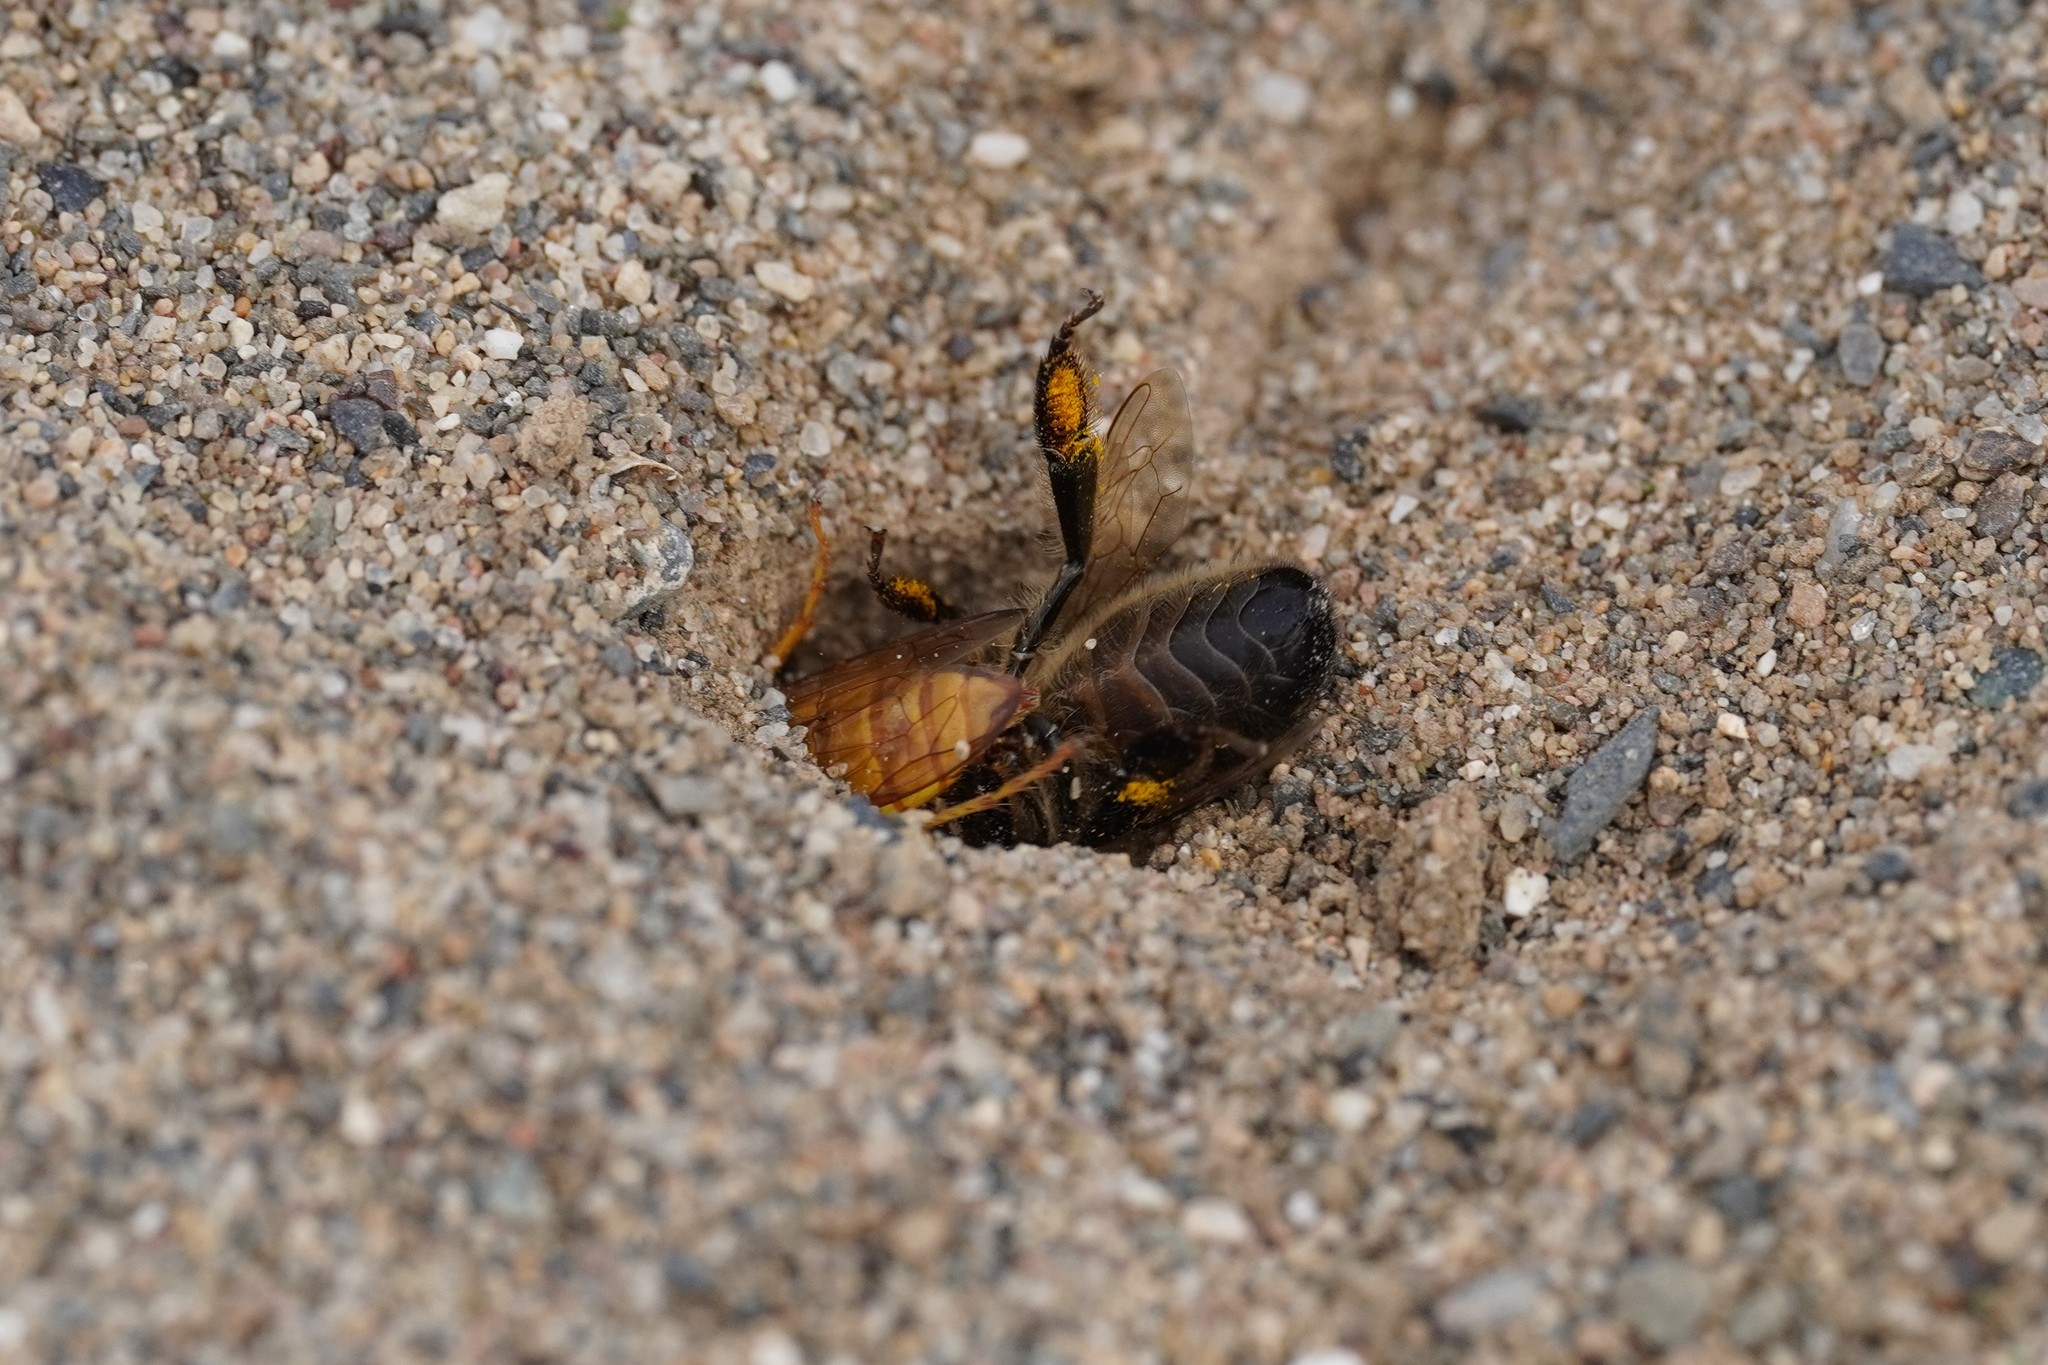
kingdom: Animalia
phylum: Arthropoda
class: Insecta
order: Hymenoptera
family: Crabronidae
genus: Philanthus
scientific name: Philanthus triangulum
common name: Bee wolf
